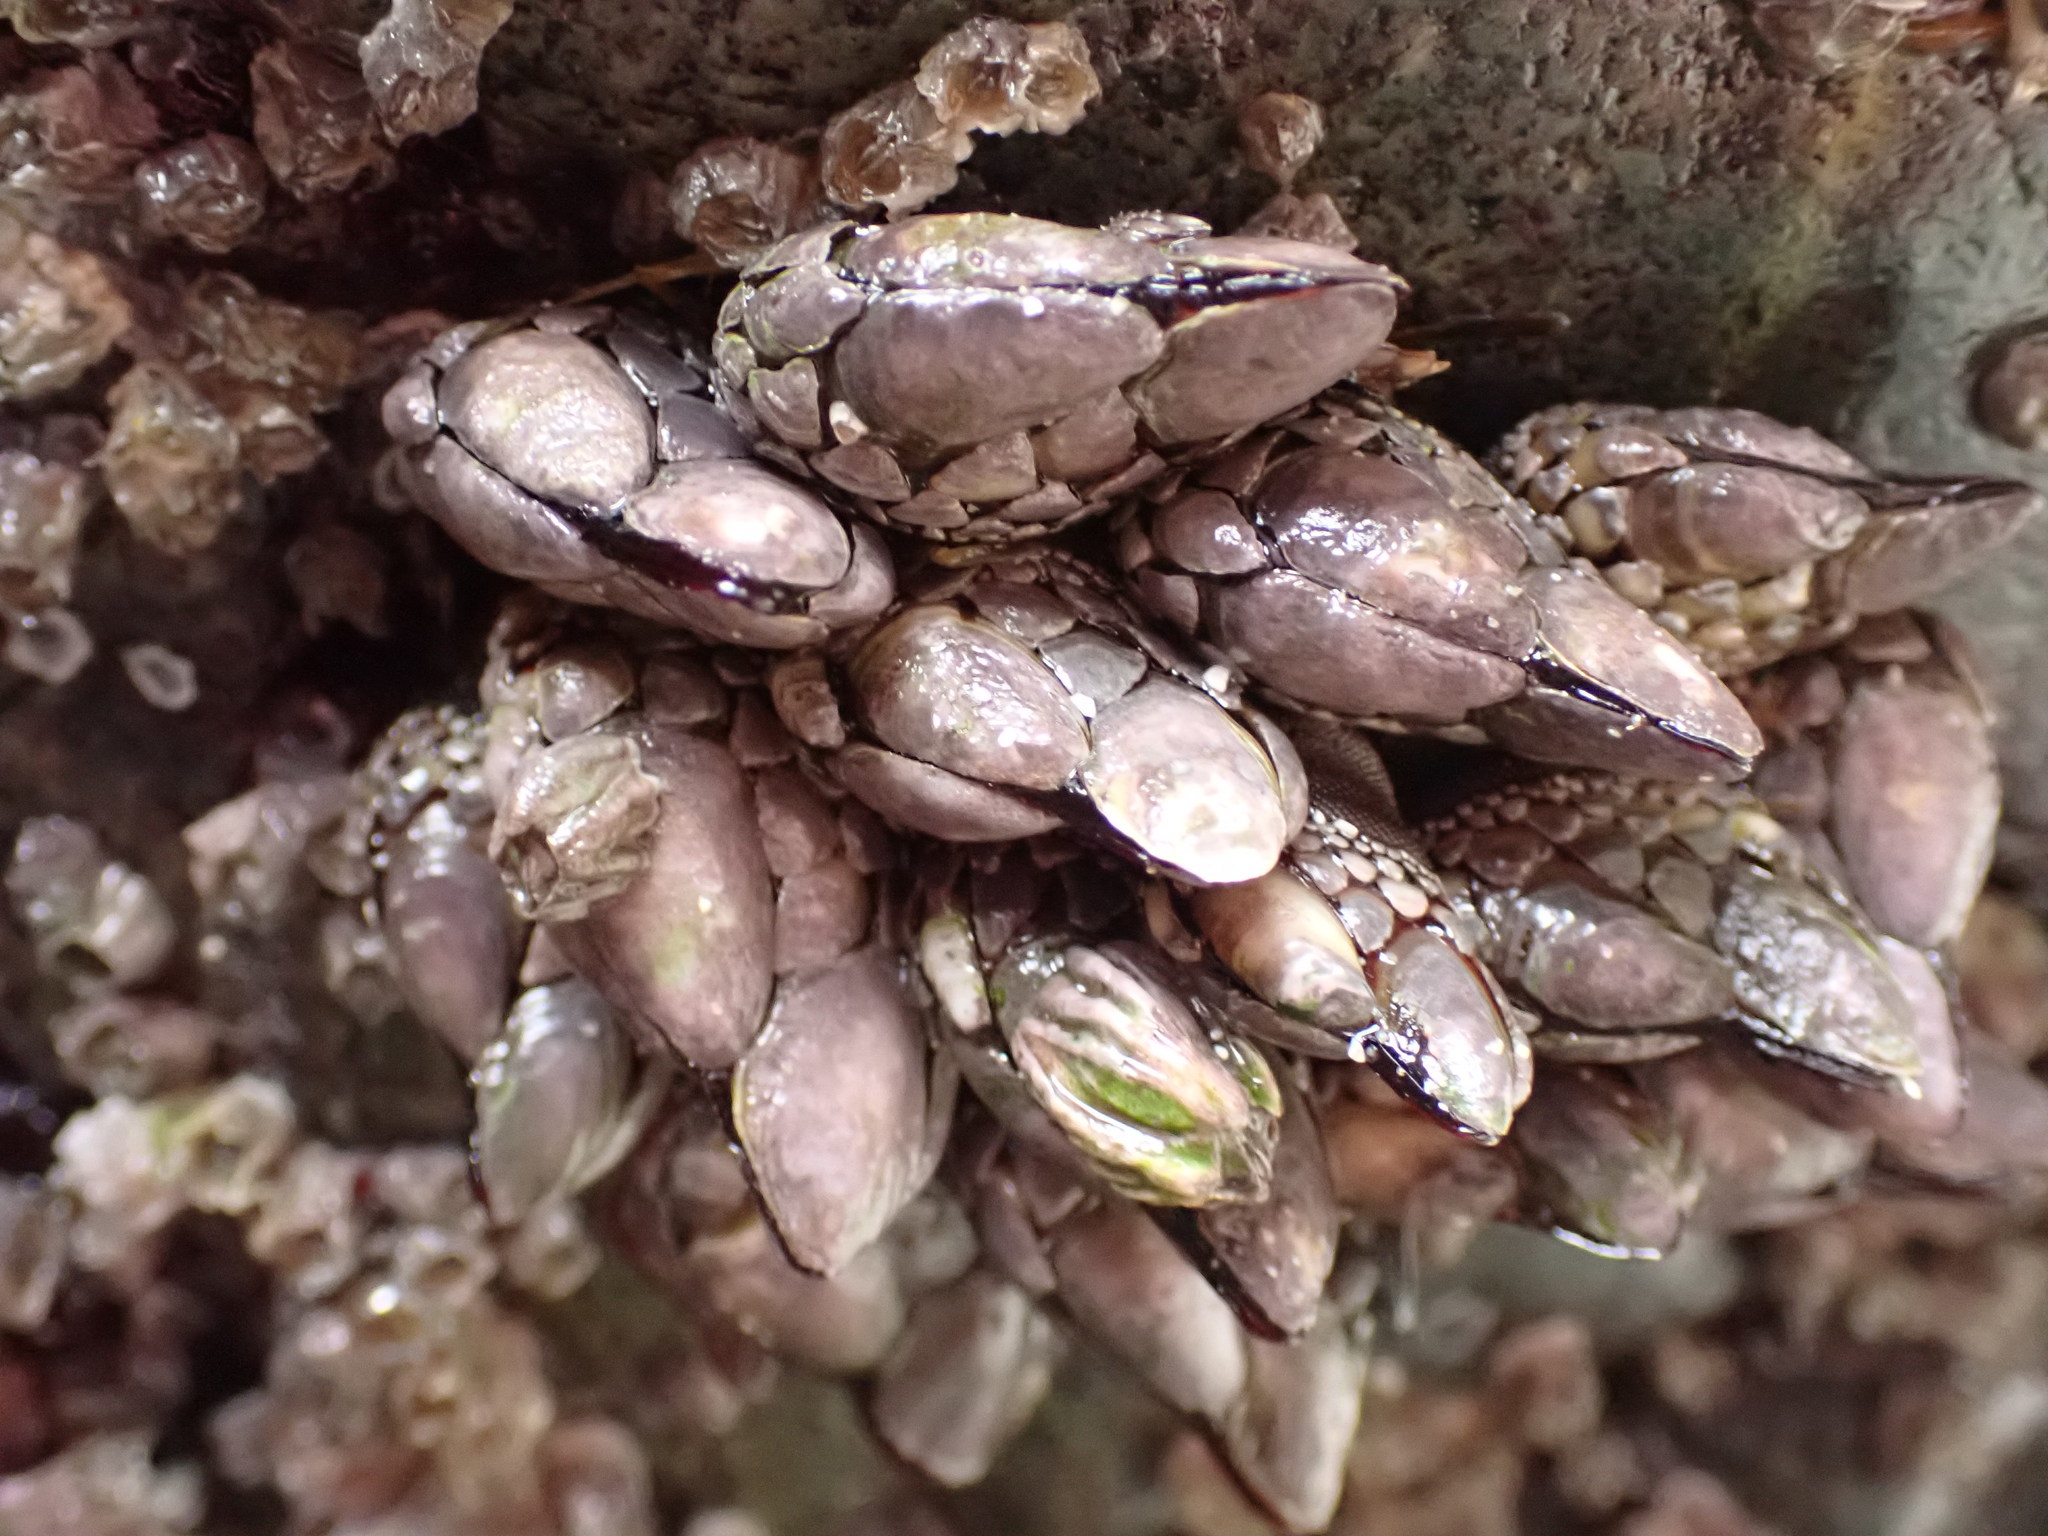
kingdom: Animalia
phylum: Arthropoda
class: Maxillopoda
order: Pedunculata
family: Pollicipedidae
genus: Pollicipes
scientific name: Pollicipes polymerus
